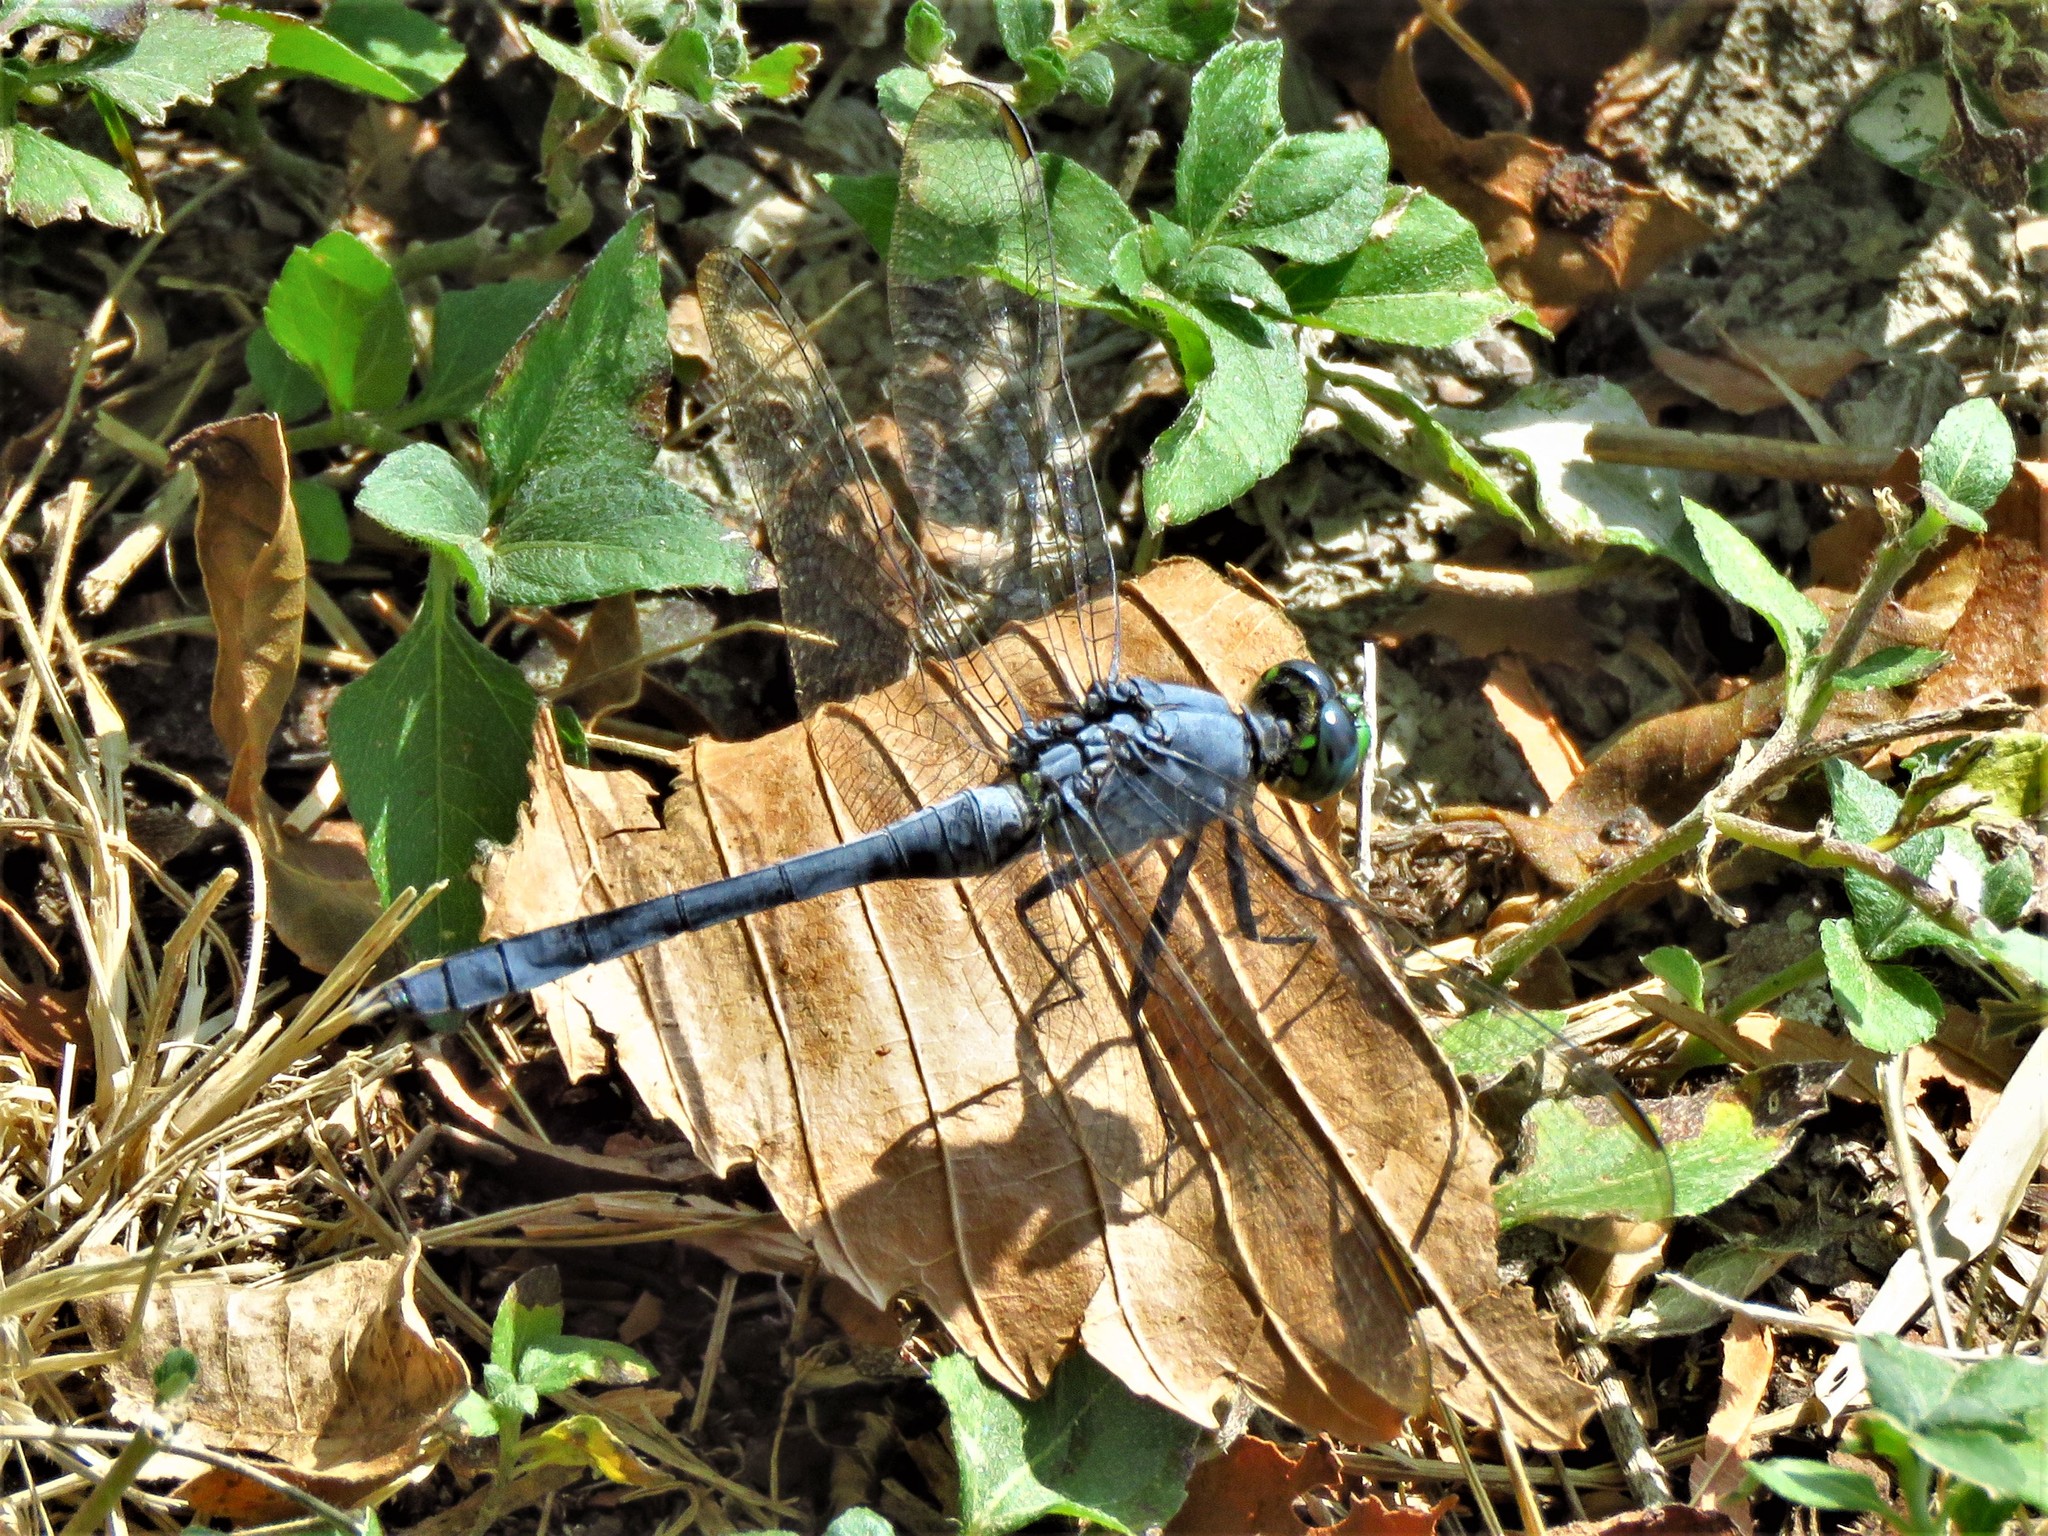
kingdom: Animalia
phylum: Arthropoda
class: Insecta
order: Odonata
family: Libellulidae
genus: Erythemis
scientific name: Erythemis simplicicollis
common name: Eastern pondhawk
